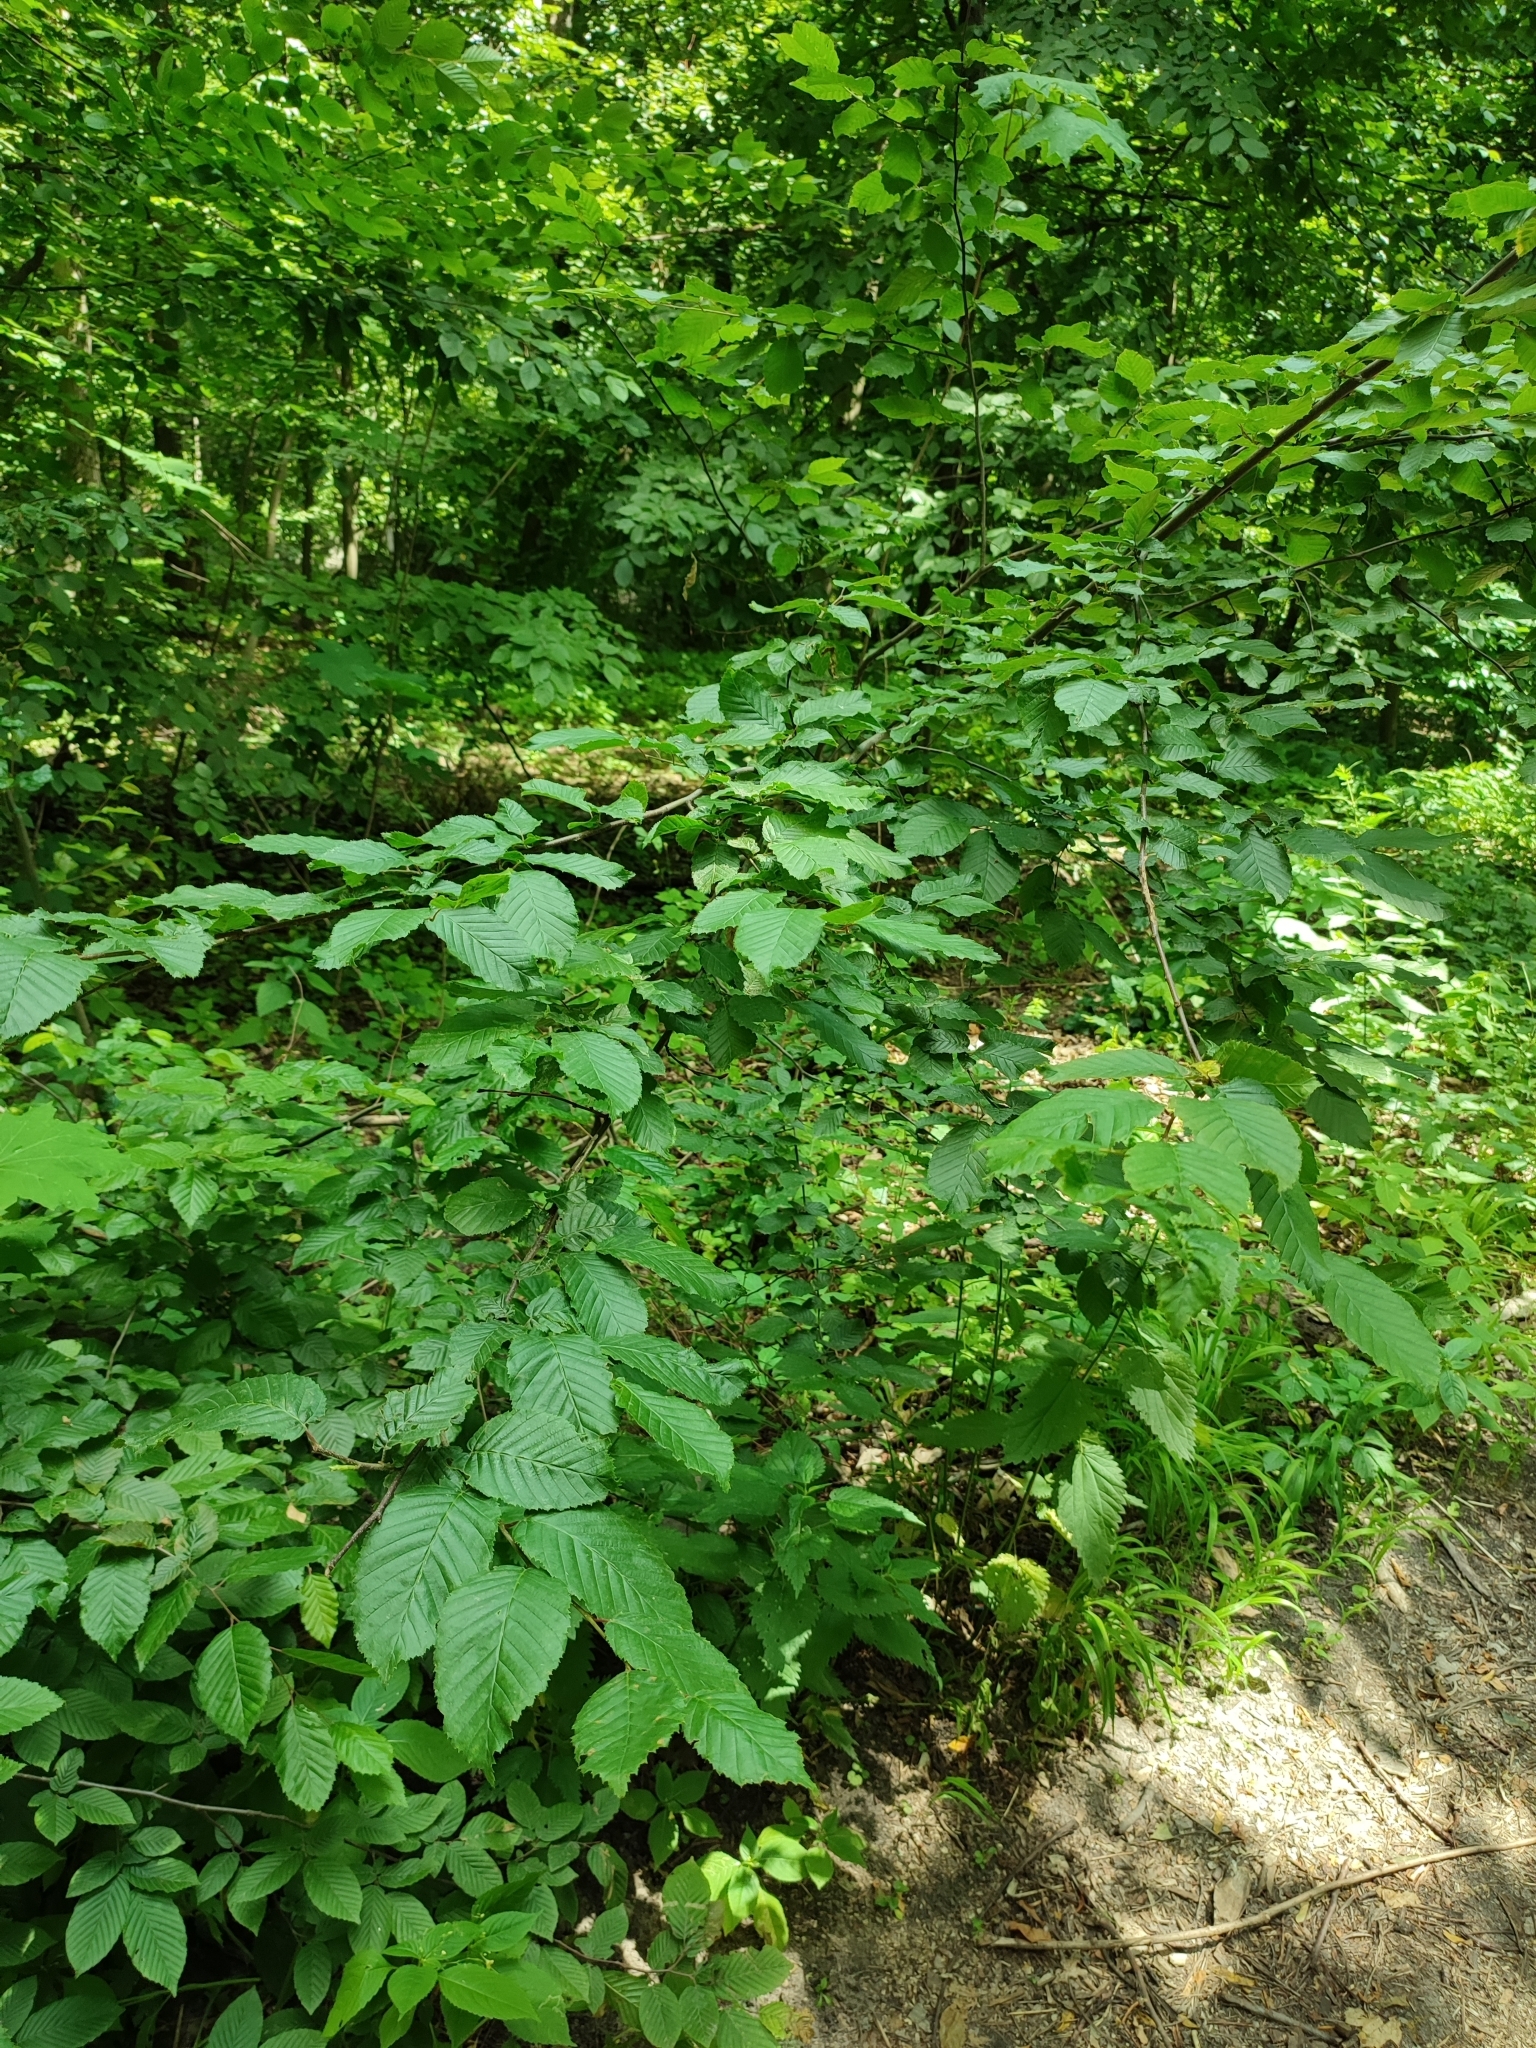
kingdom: Plantae
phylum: Tracheophyta
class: Magnoliopsida
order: Fagales
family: Betulaceae
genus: Carpinus
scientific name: Carpinus betulus
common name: Hornbeam
